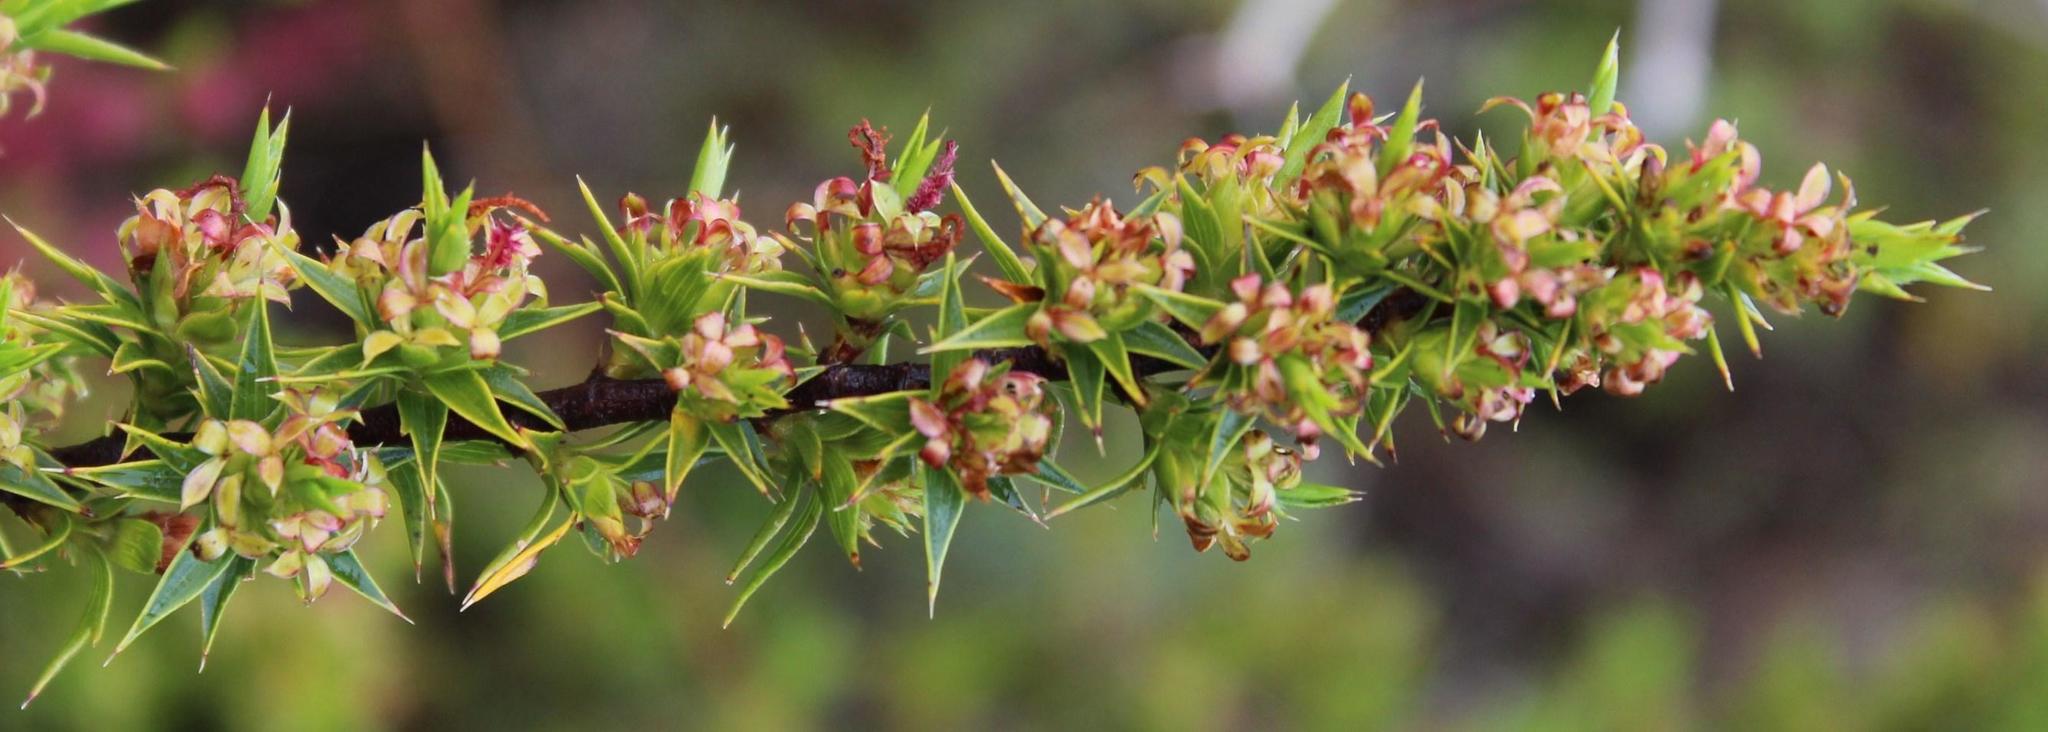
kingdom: Plantae
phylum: Tracheophyta
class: Magnoliopsida
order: Rosales
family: Rosaceae
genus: Cliffortia
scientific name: Cliffortia ruscifolia
